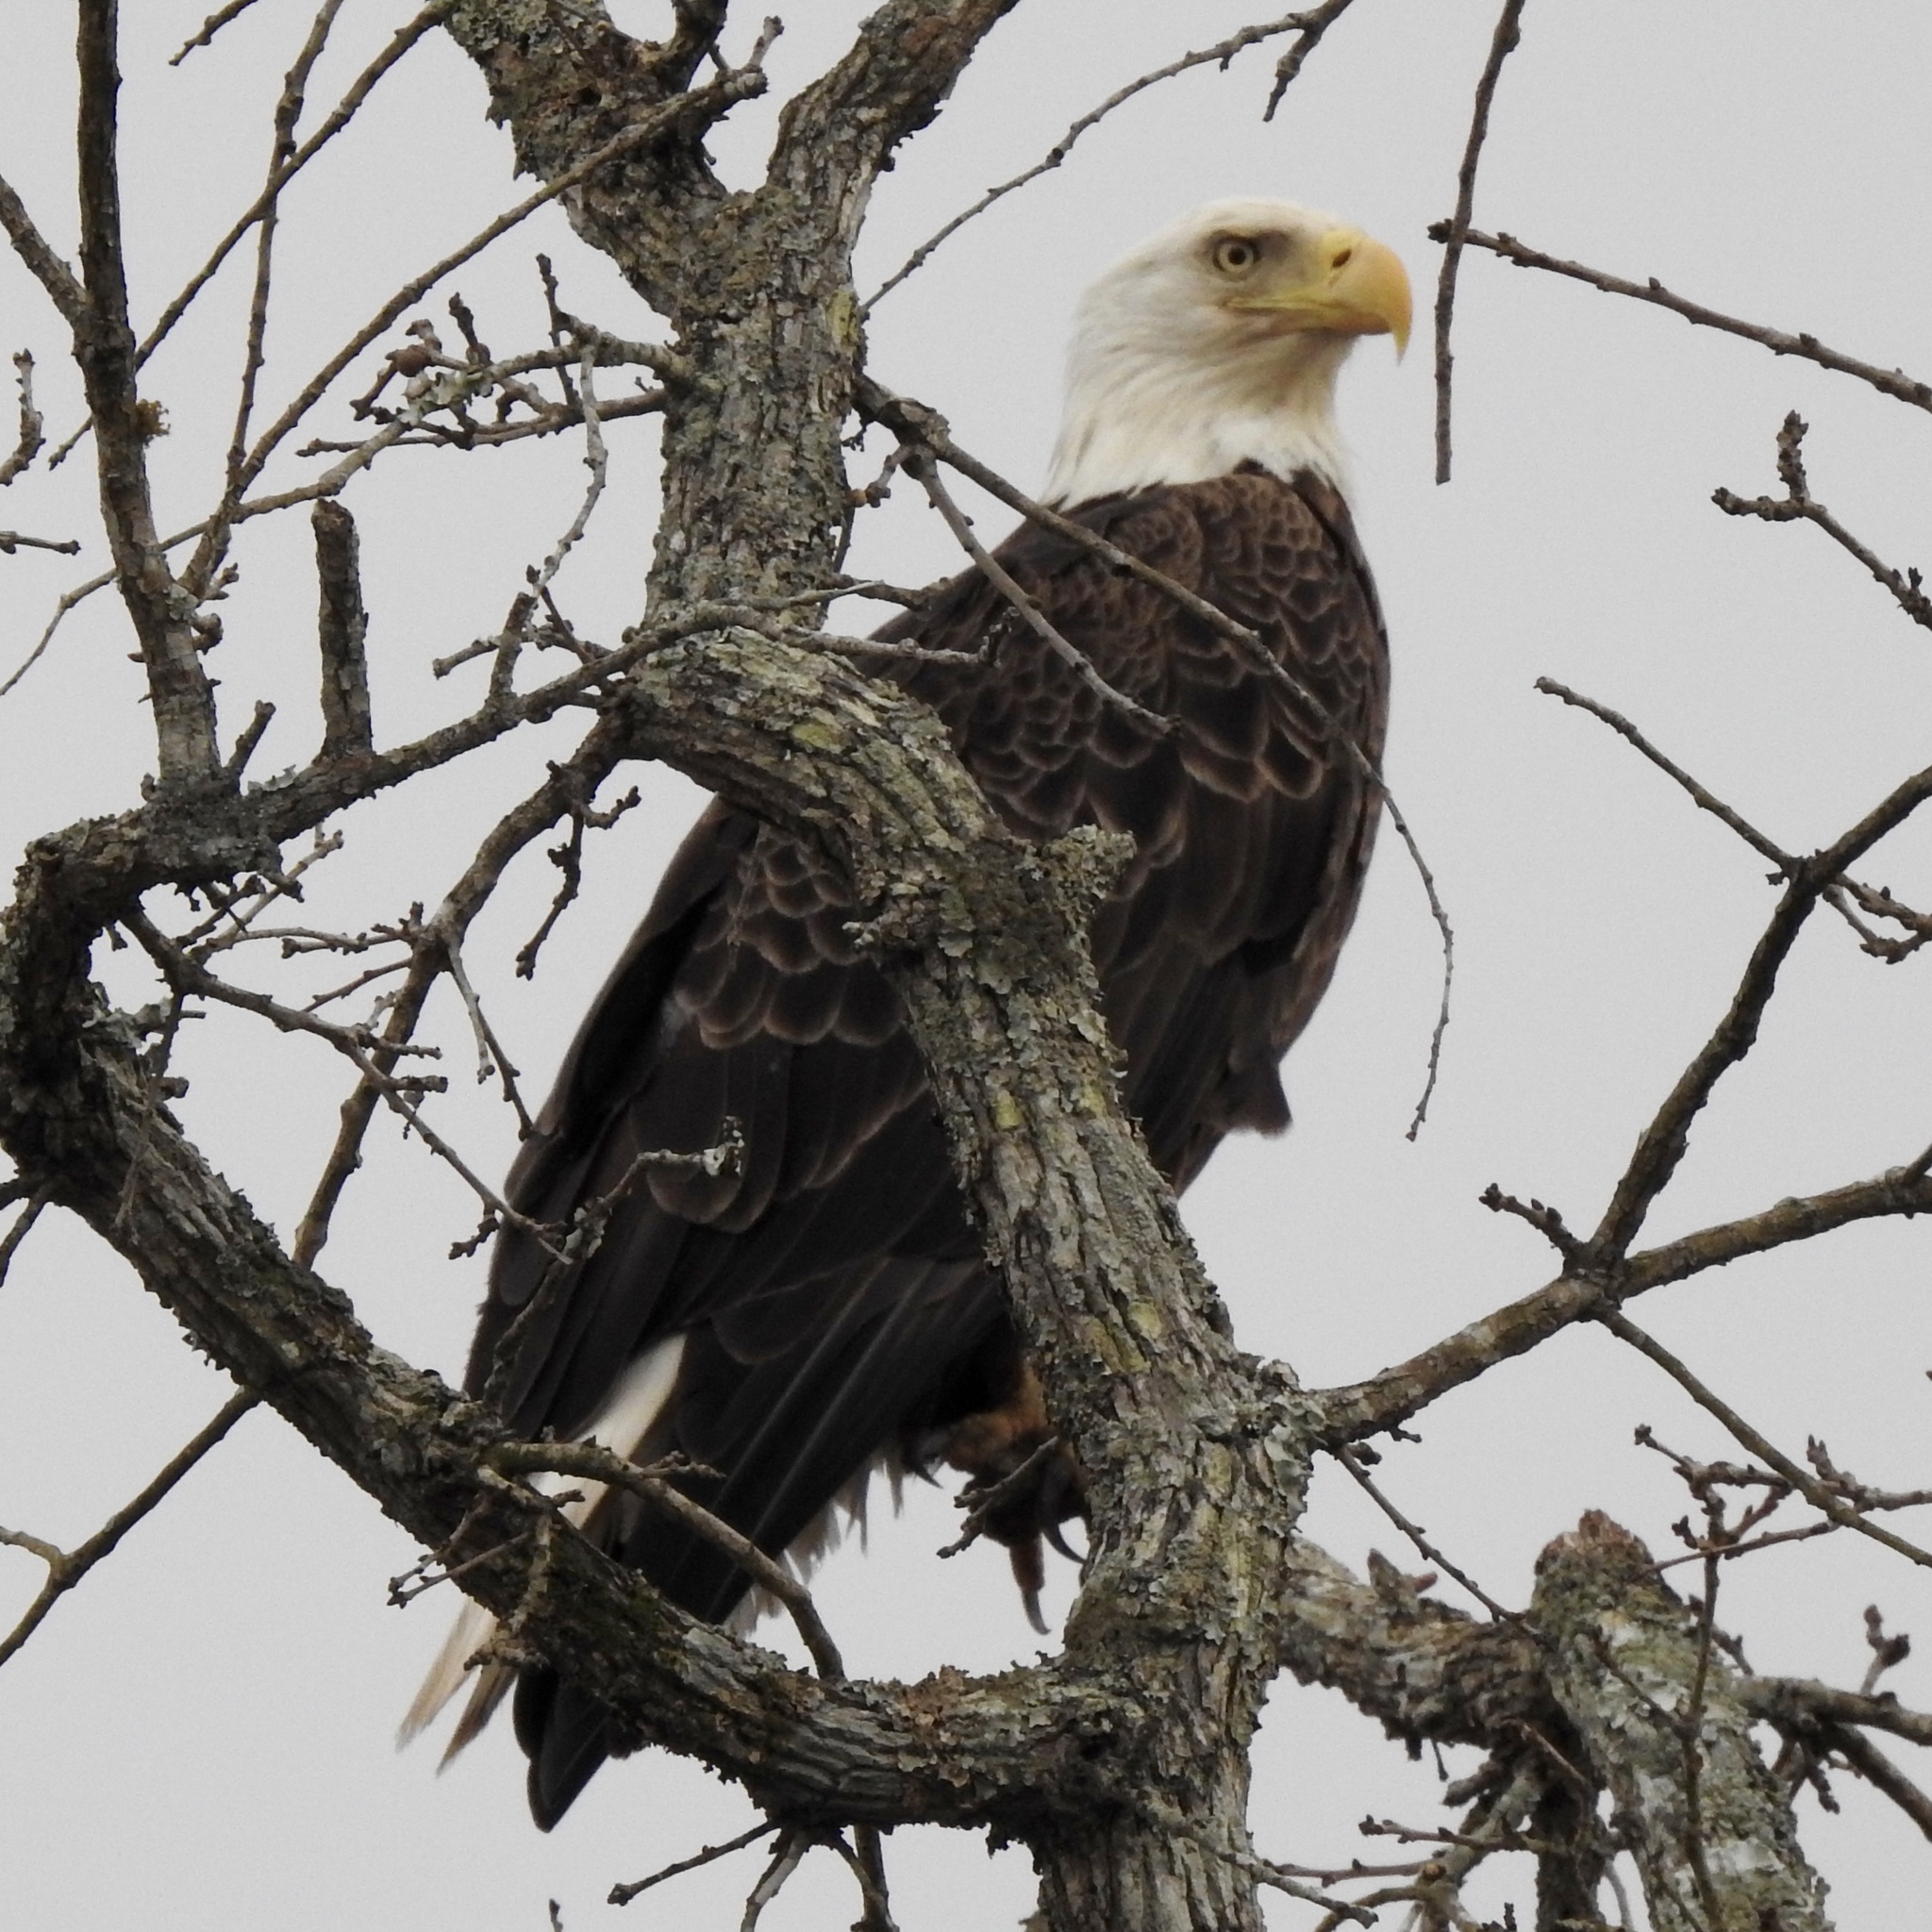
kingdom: Animalia
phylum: Chordata
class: Aves
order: Accipitriformes
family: Accipitridae
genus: Haliaeetus
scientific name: Haliaeetus leucocephalus
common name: Bald eagle
